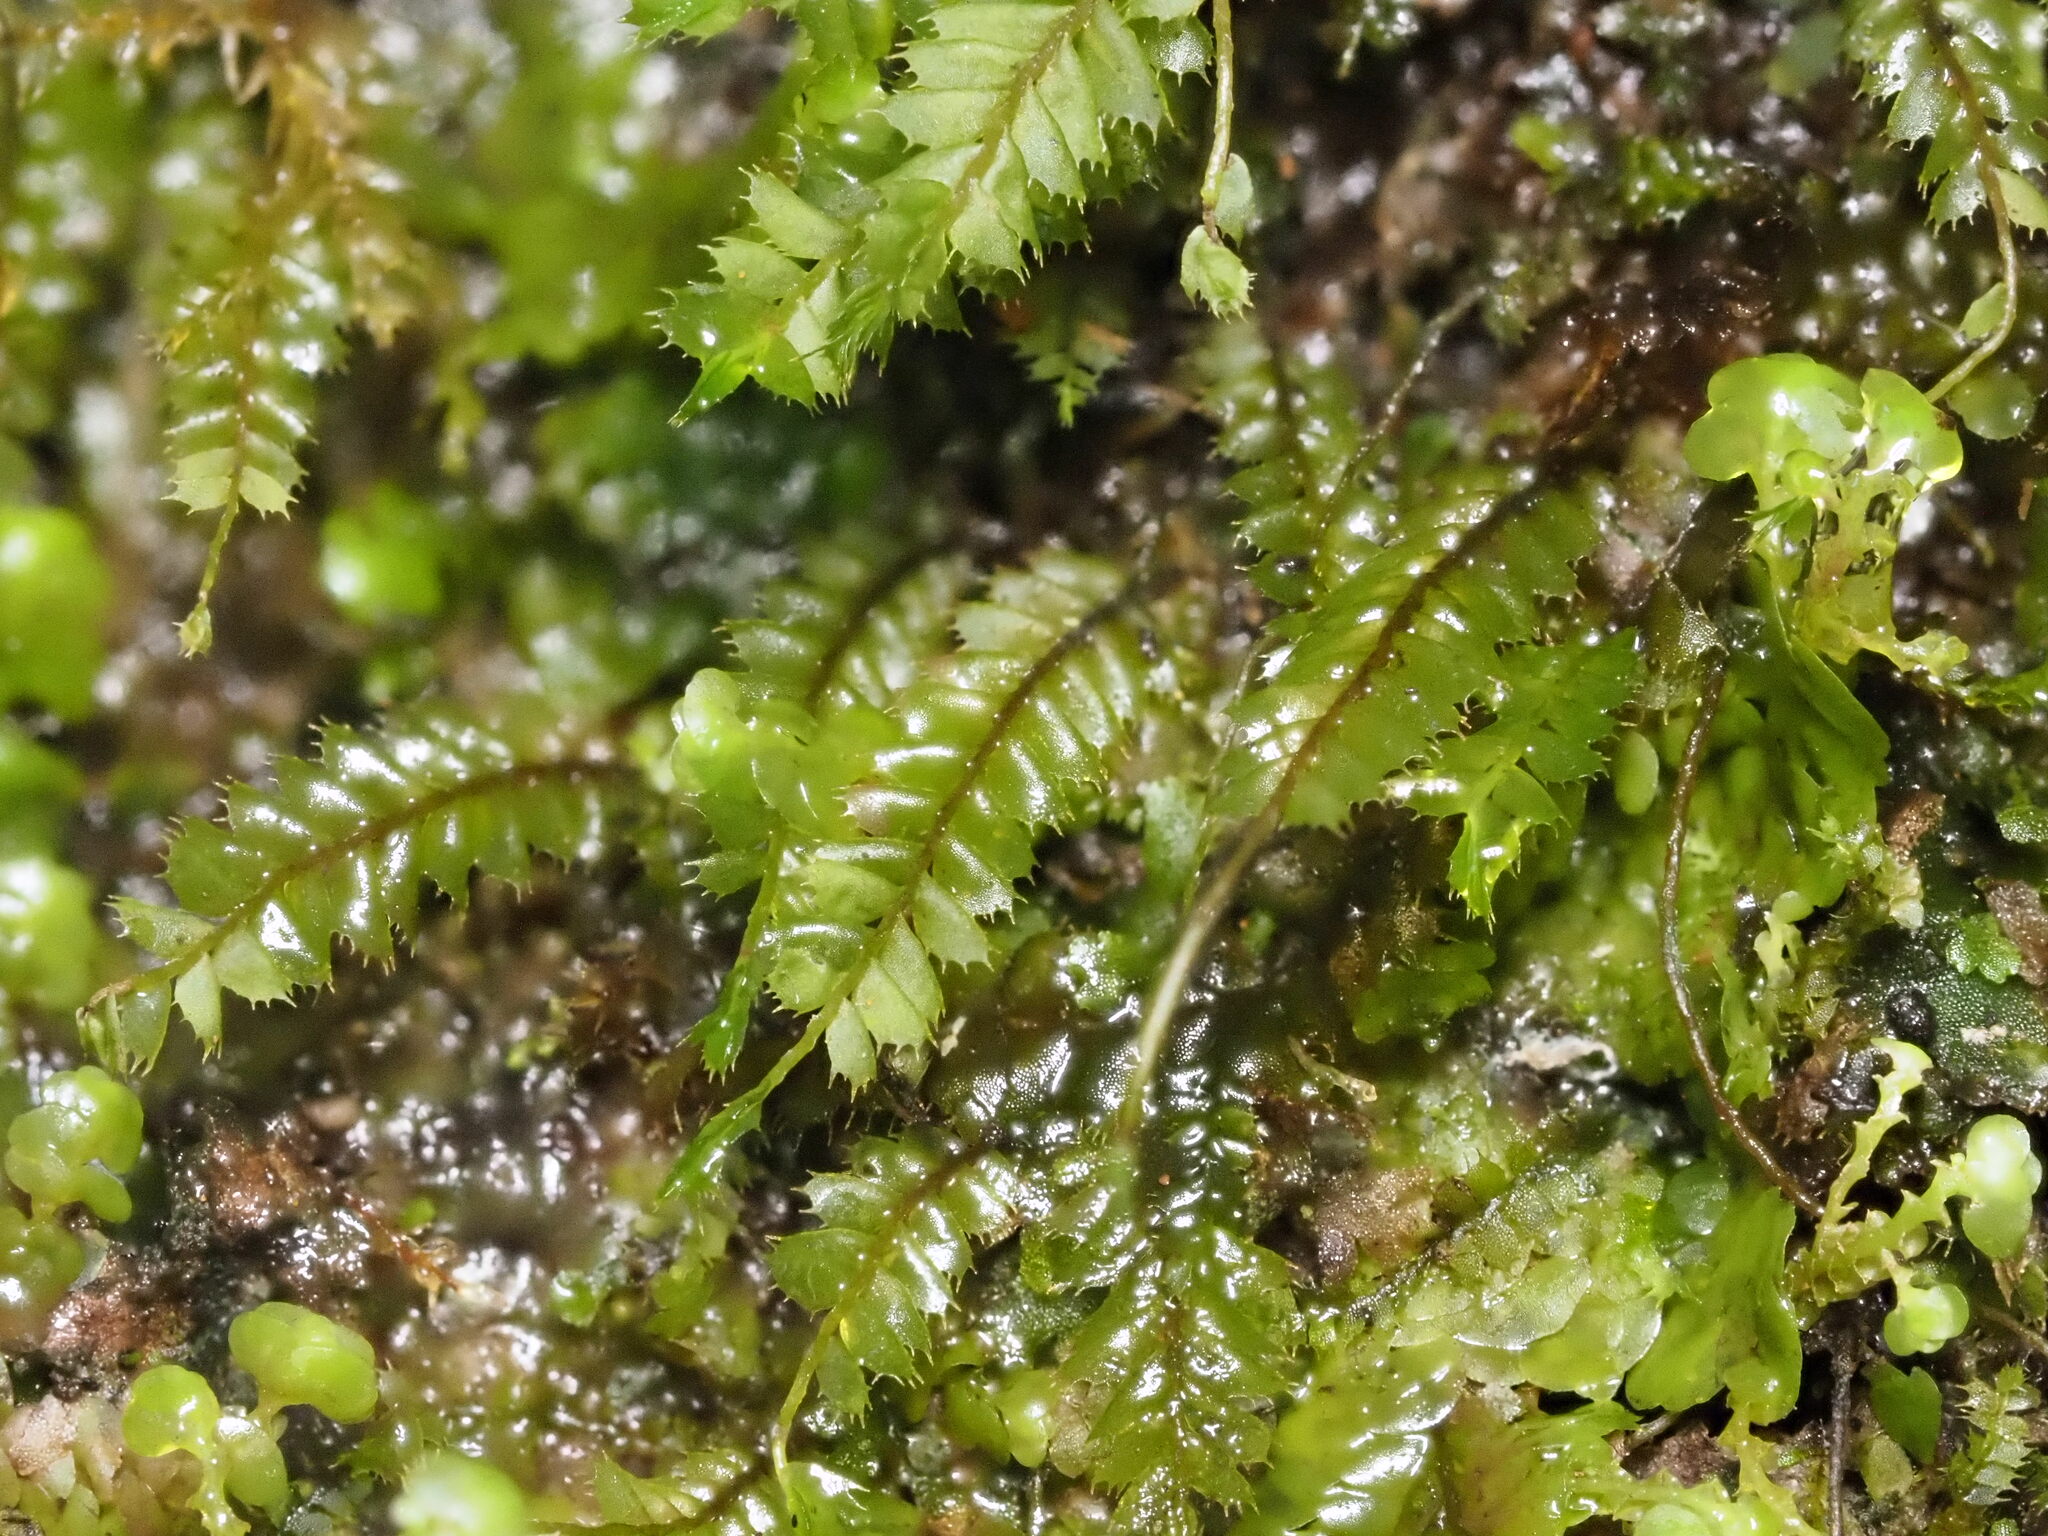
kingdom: Plantae
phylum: Marchantiophyta
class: Jungermanniopsida
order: Jungermanniales
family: Plagiochilaceae
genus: Plagiochila
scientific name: Plagiochila gaudichaudii
